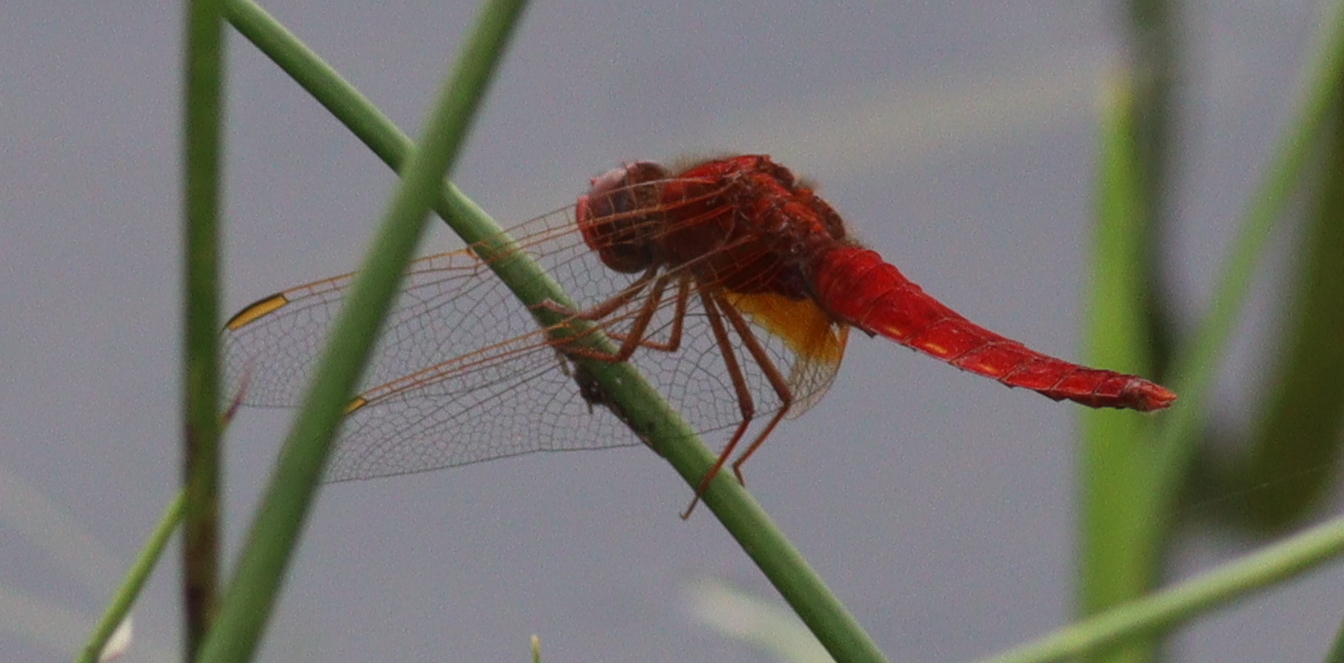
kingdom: Animalia
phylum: Arthropoda
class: Insecta
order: Odonata
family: Libellulidae
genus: Crocothemis
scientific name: Crocothemis erythraea
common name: Scarlet dragonfly
